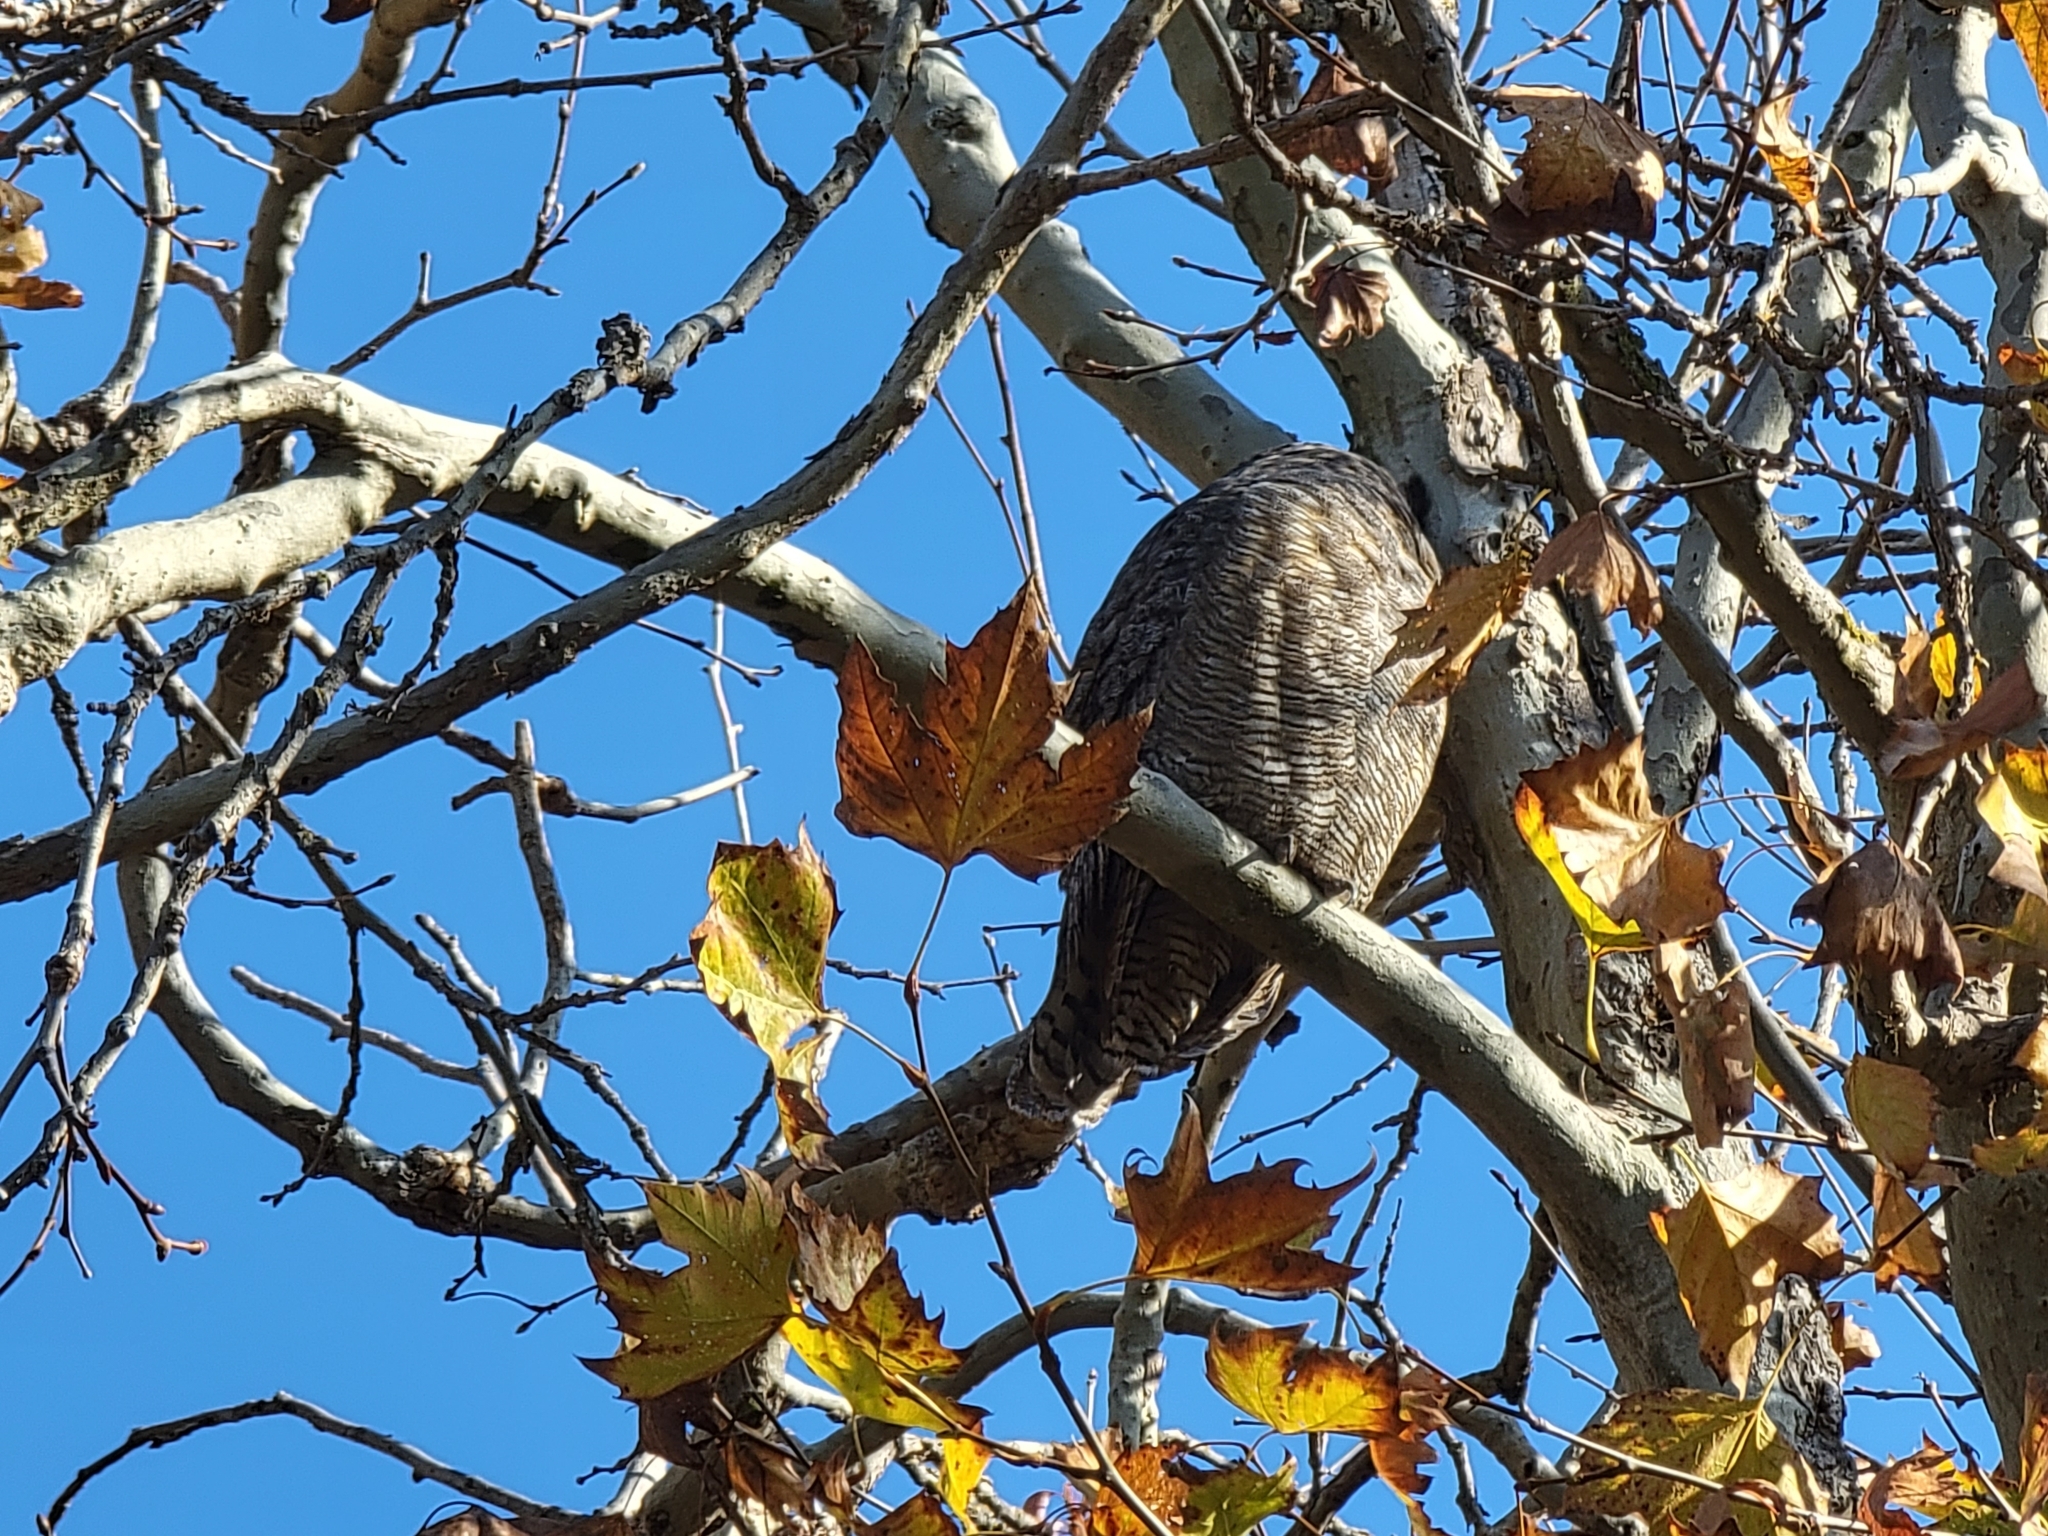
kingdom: Animalia
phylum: Chordata
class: Aves
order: Strigiformes
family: Strigidae
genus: Bubo
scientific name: Bubo virginianus
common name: Great horned owl
